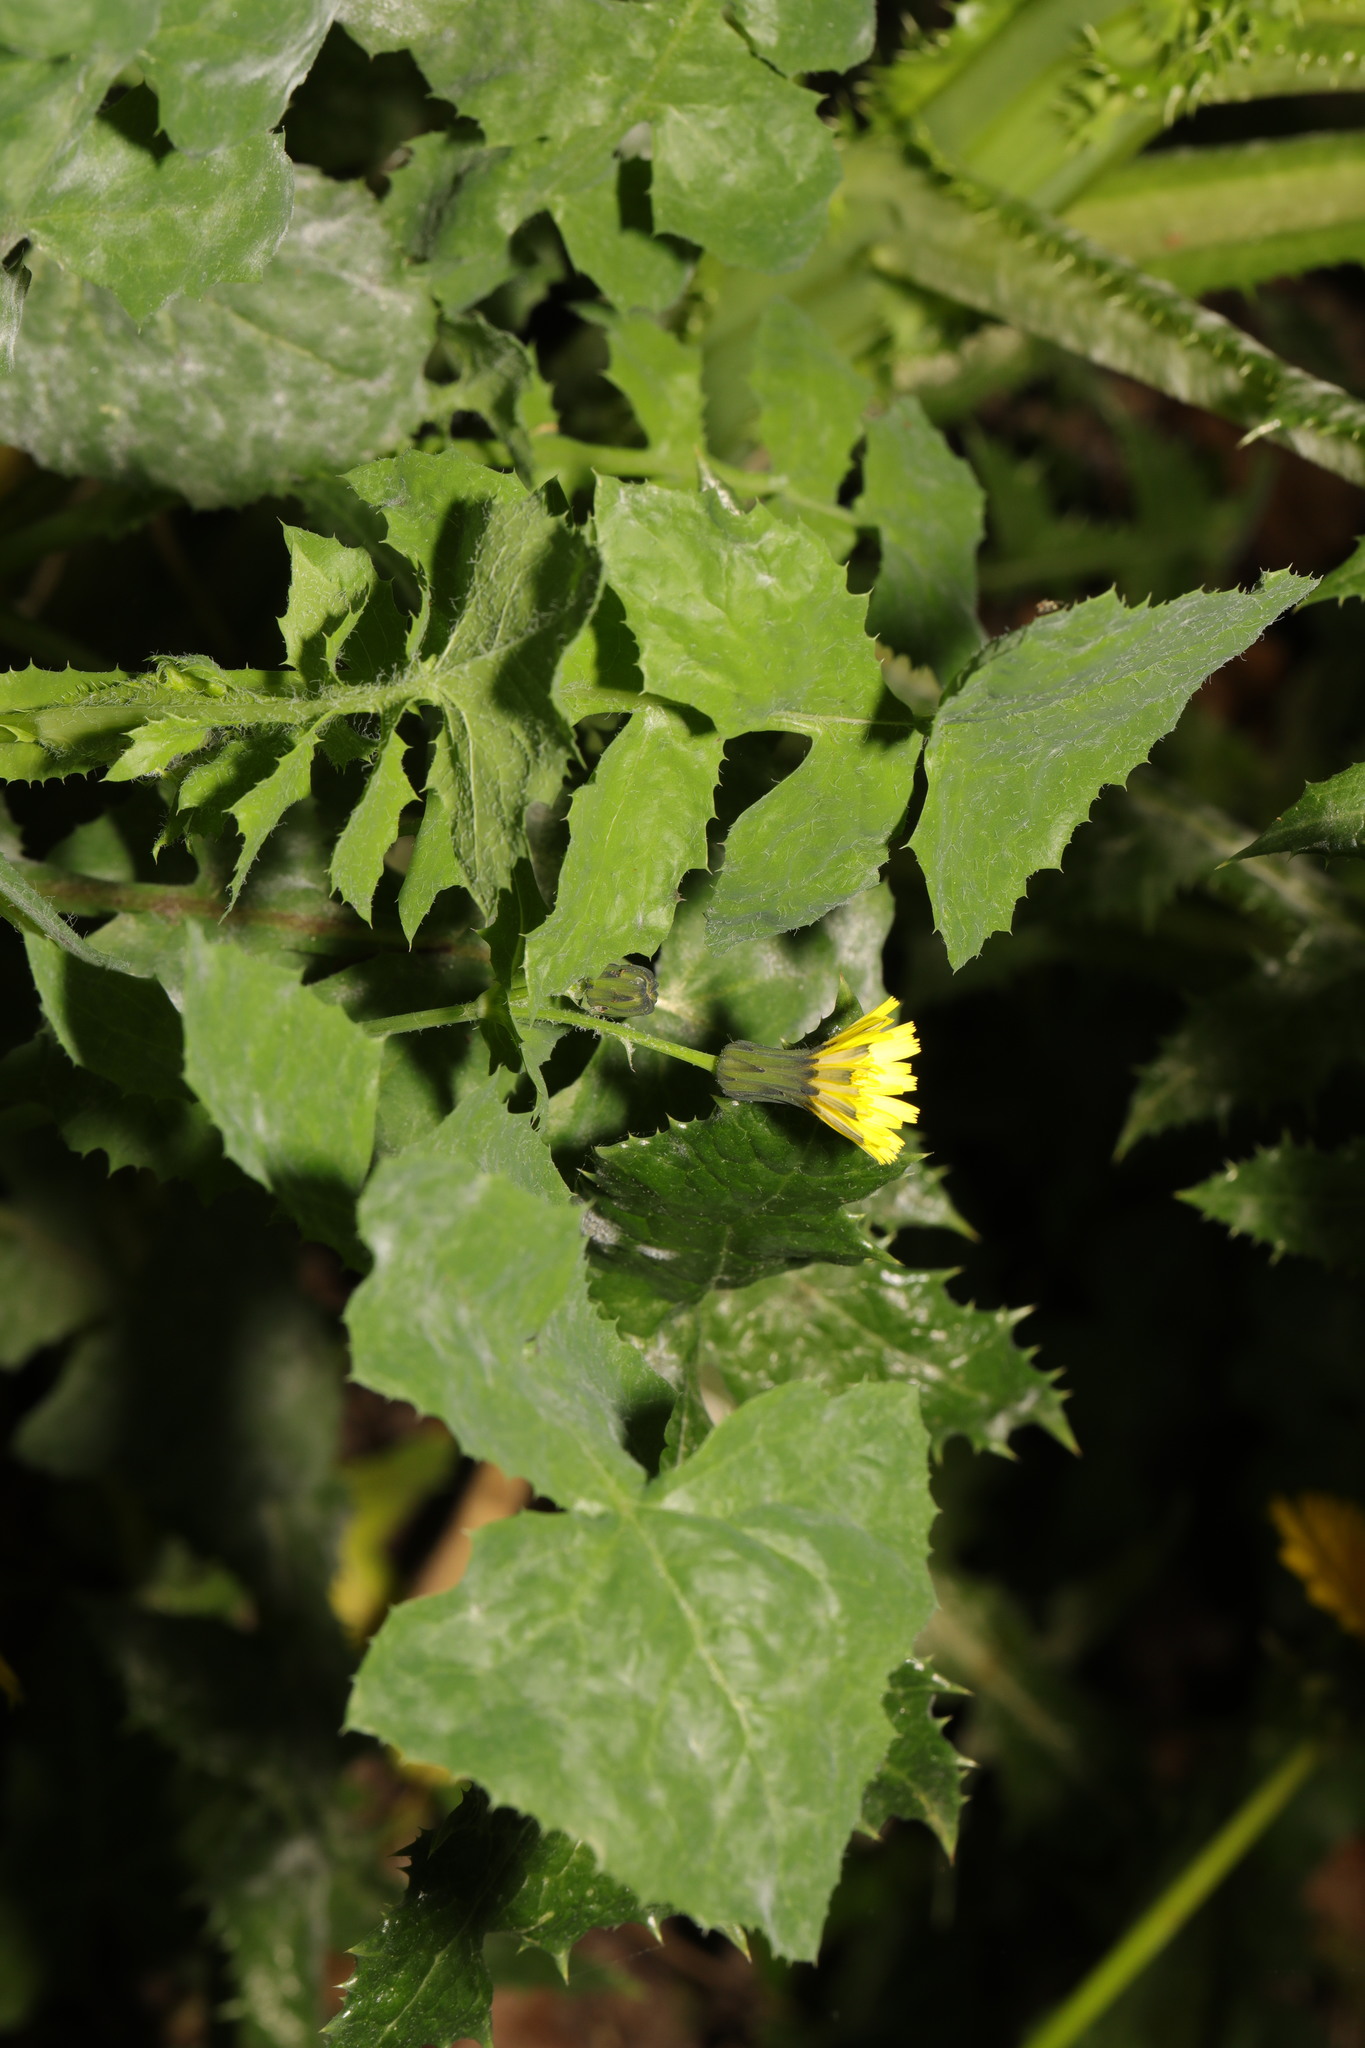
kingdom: Plantae
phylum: Tracheophyta
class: Magnoliopsida
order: Asterales
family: Asteraceae
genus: Sonchus
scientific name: Sonchus oleraceus
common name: Common sowthistle
